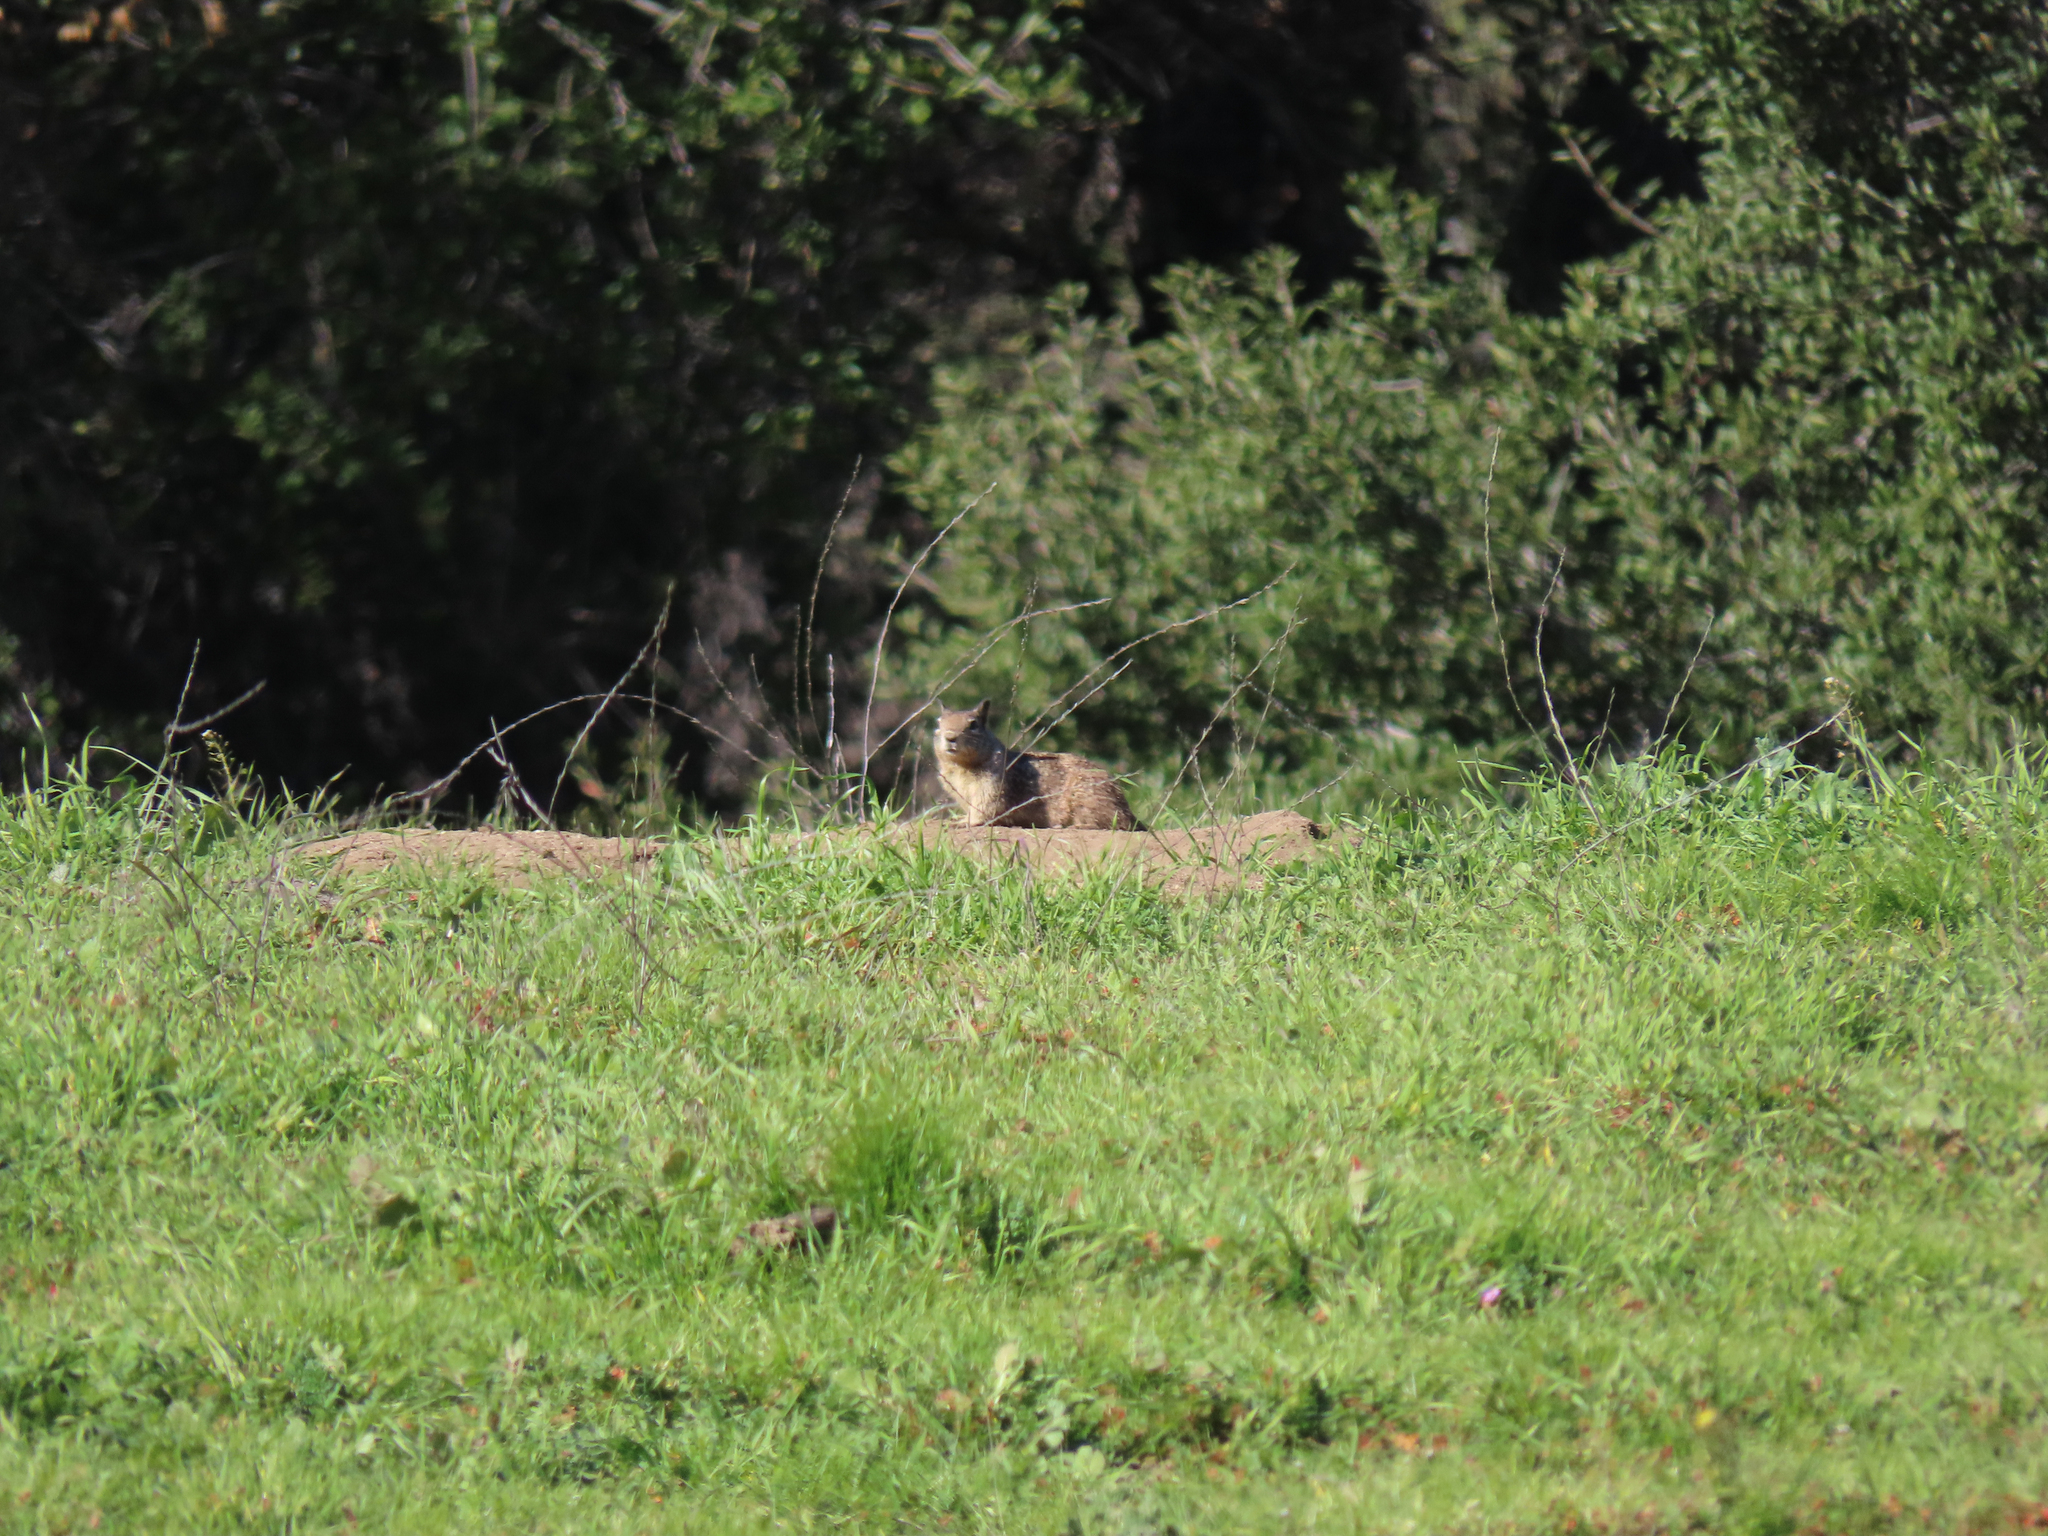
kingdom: Animalia
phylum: Chordata
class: Mammalia
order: Rodentia
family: Sciuridae
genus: Otospermophilus
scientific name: Otospermophilus beecheyi
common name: California ground squirrel
